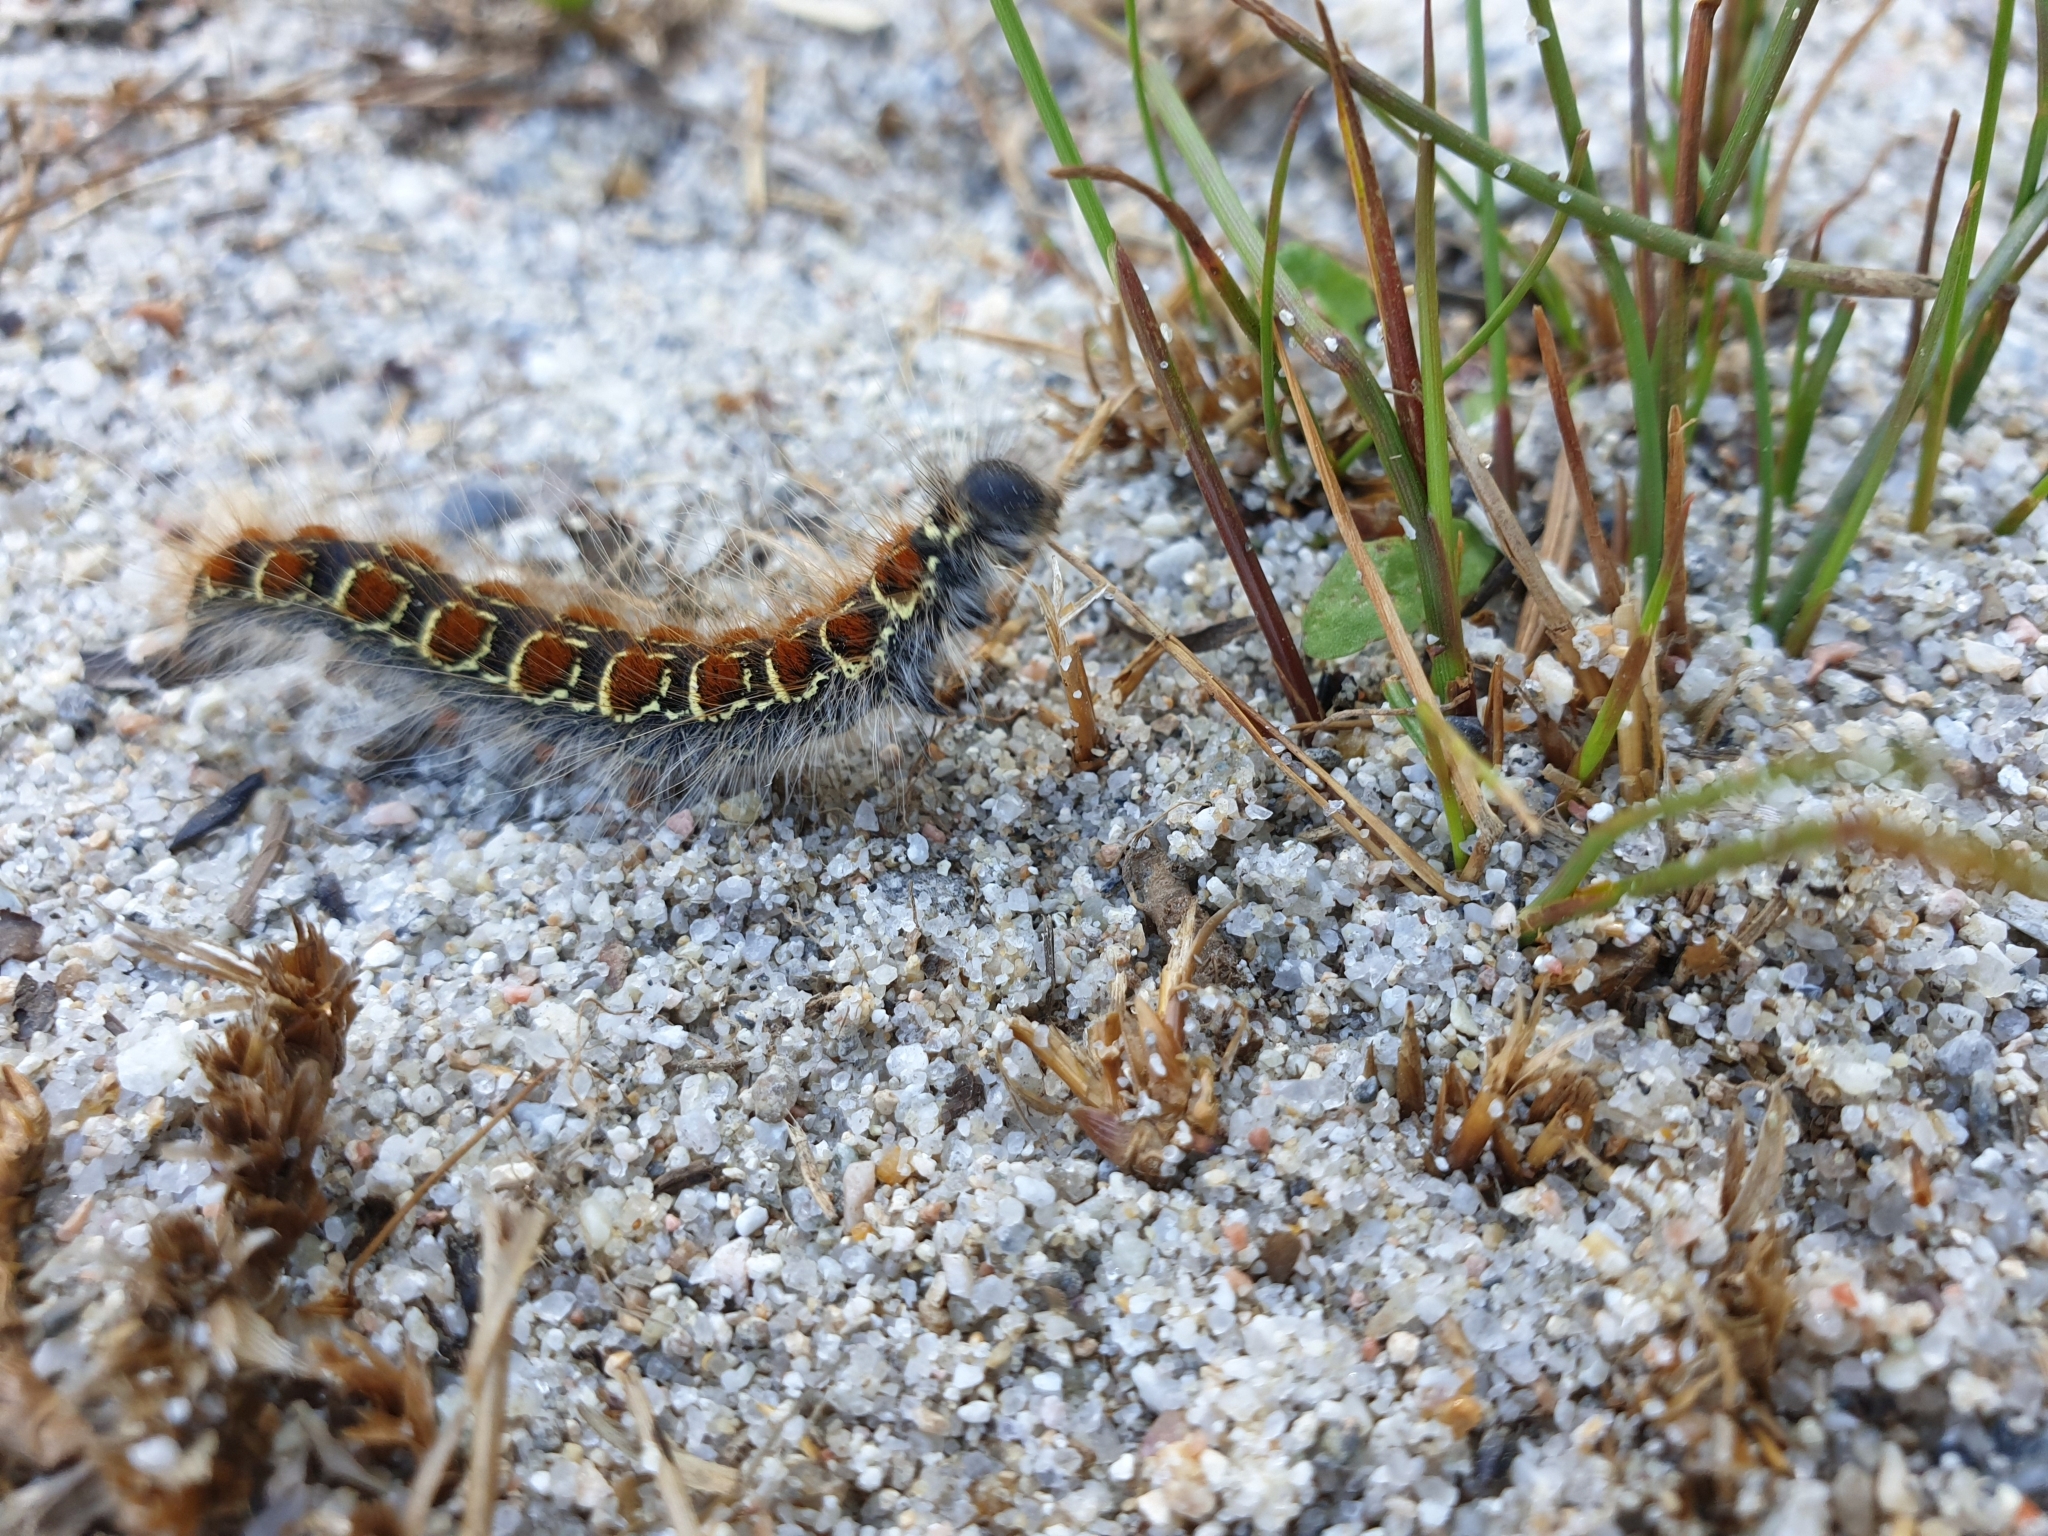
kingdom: Animalia
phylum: Arthropoda
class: Insecta
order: Lepidoptera
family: Lasiocampidae
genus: Eriogaster
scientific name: Eriogaster lanestris
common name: Small eggar
